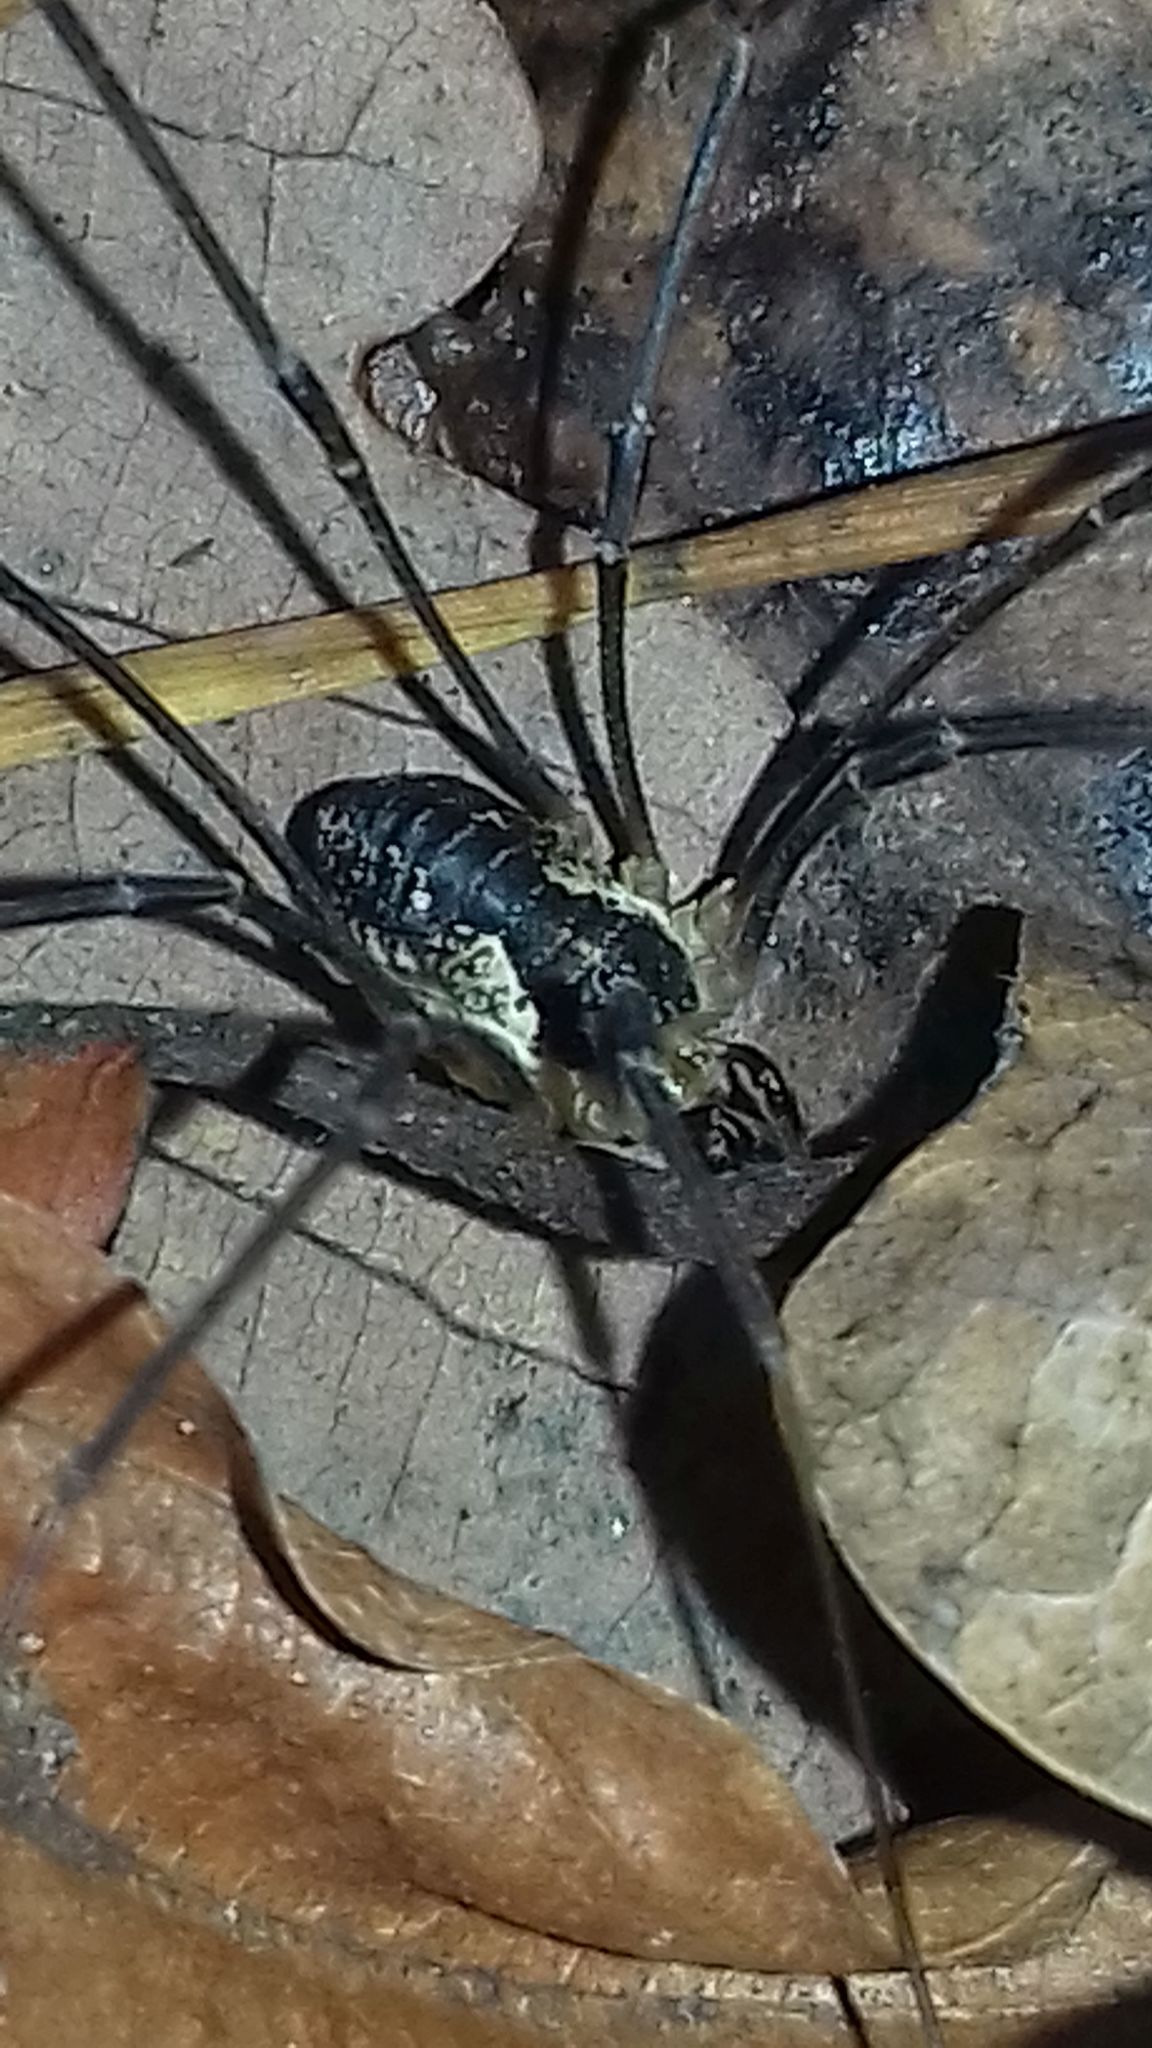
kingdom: Animalia
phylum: Arthropoda
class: Arachnida
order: Opiliones
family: Phalangiidae
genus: Mitopus
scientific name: Mitopus morio
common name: Saddleback harvestman
